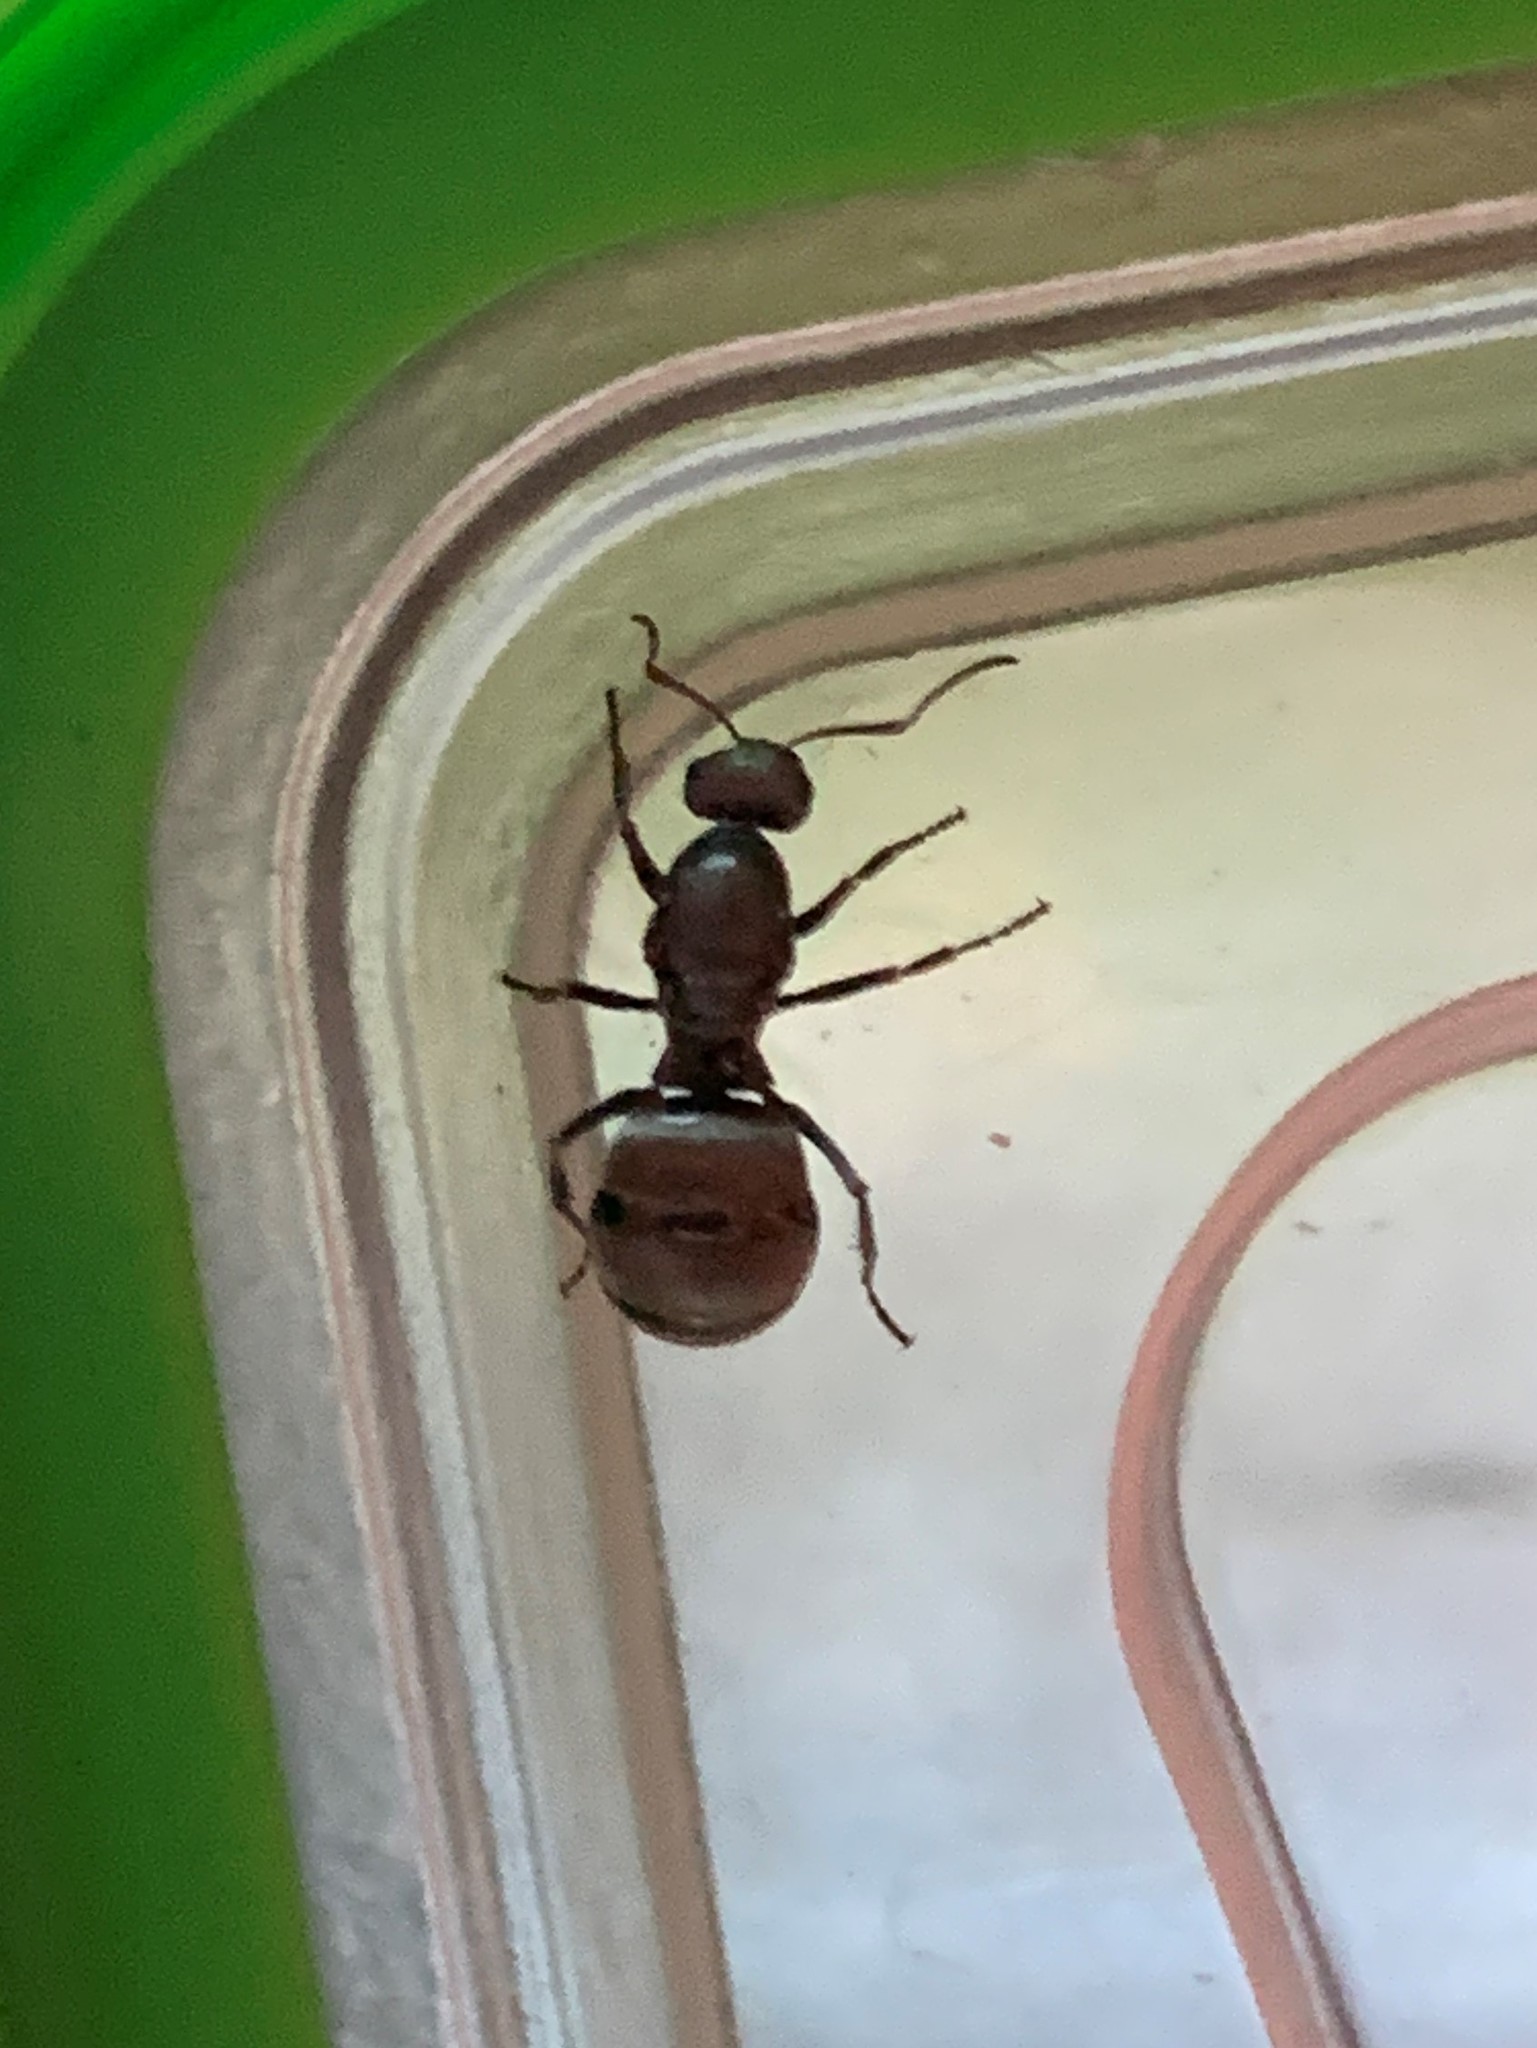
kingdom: Animalia
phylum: Arthropoda
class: Insecta
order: Hymenoptera
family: Formicidae
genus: Formica
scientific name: Formica subsericea
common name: Silky field ant
